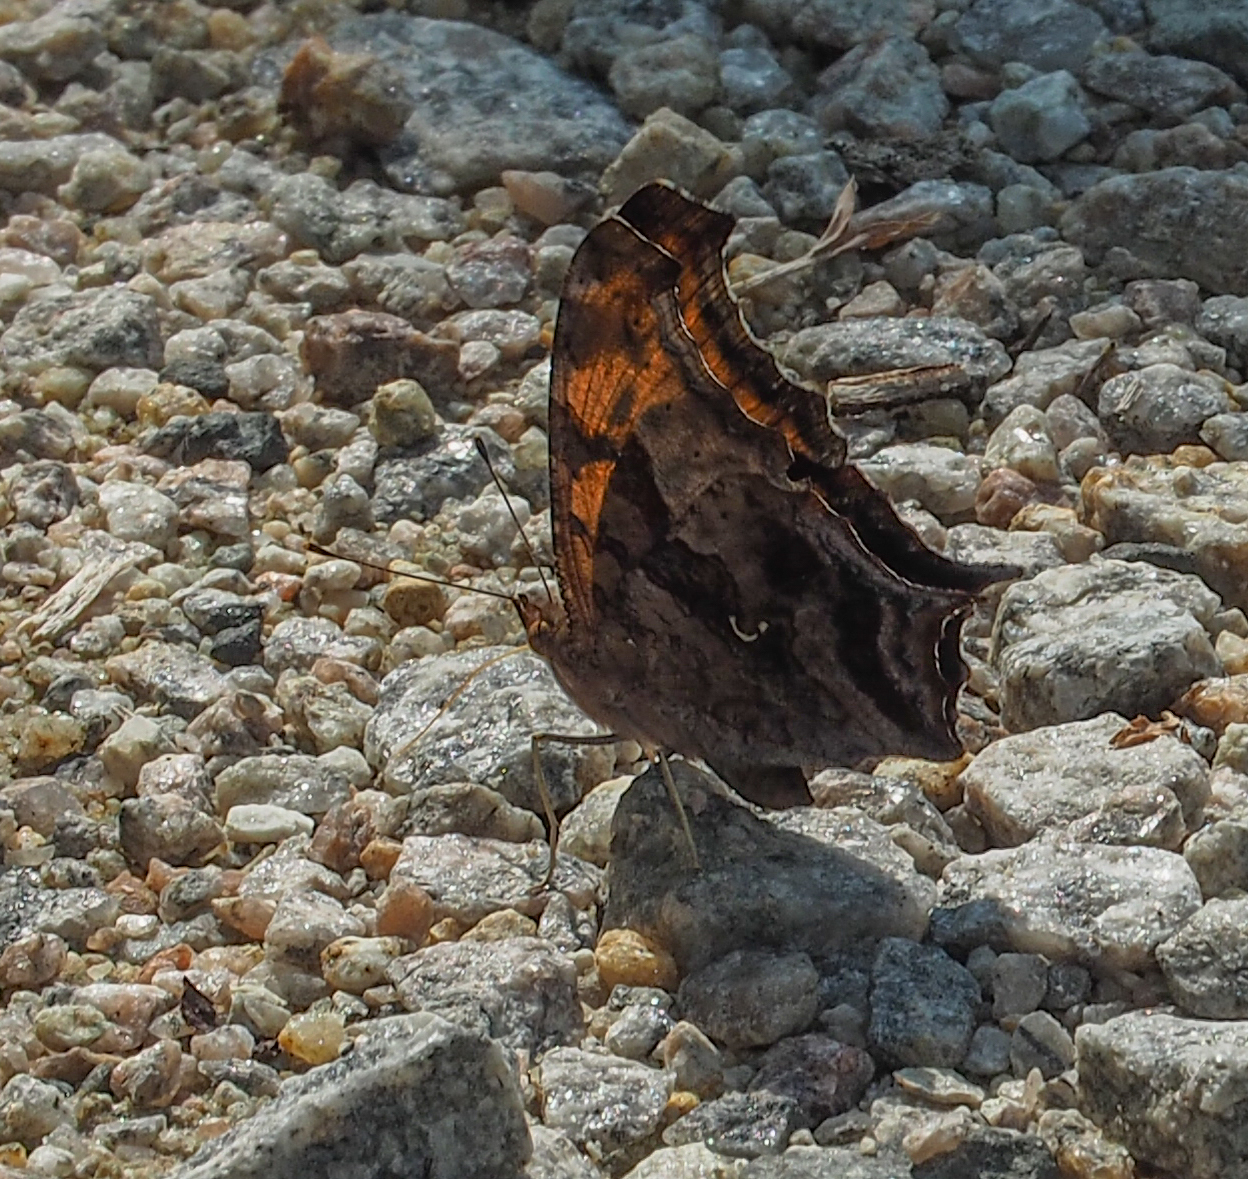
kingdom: Animalia
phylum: Arthropoda
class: Insecta
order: Lepidoptera
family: Nymphalidae
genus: Polygonia
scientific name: Polygonia interrogationis
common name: Question mark
